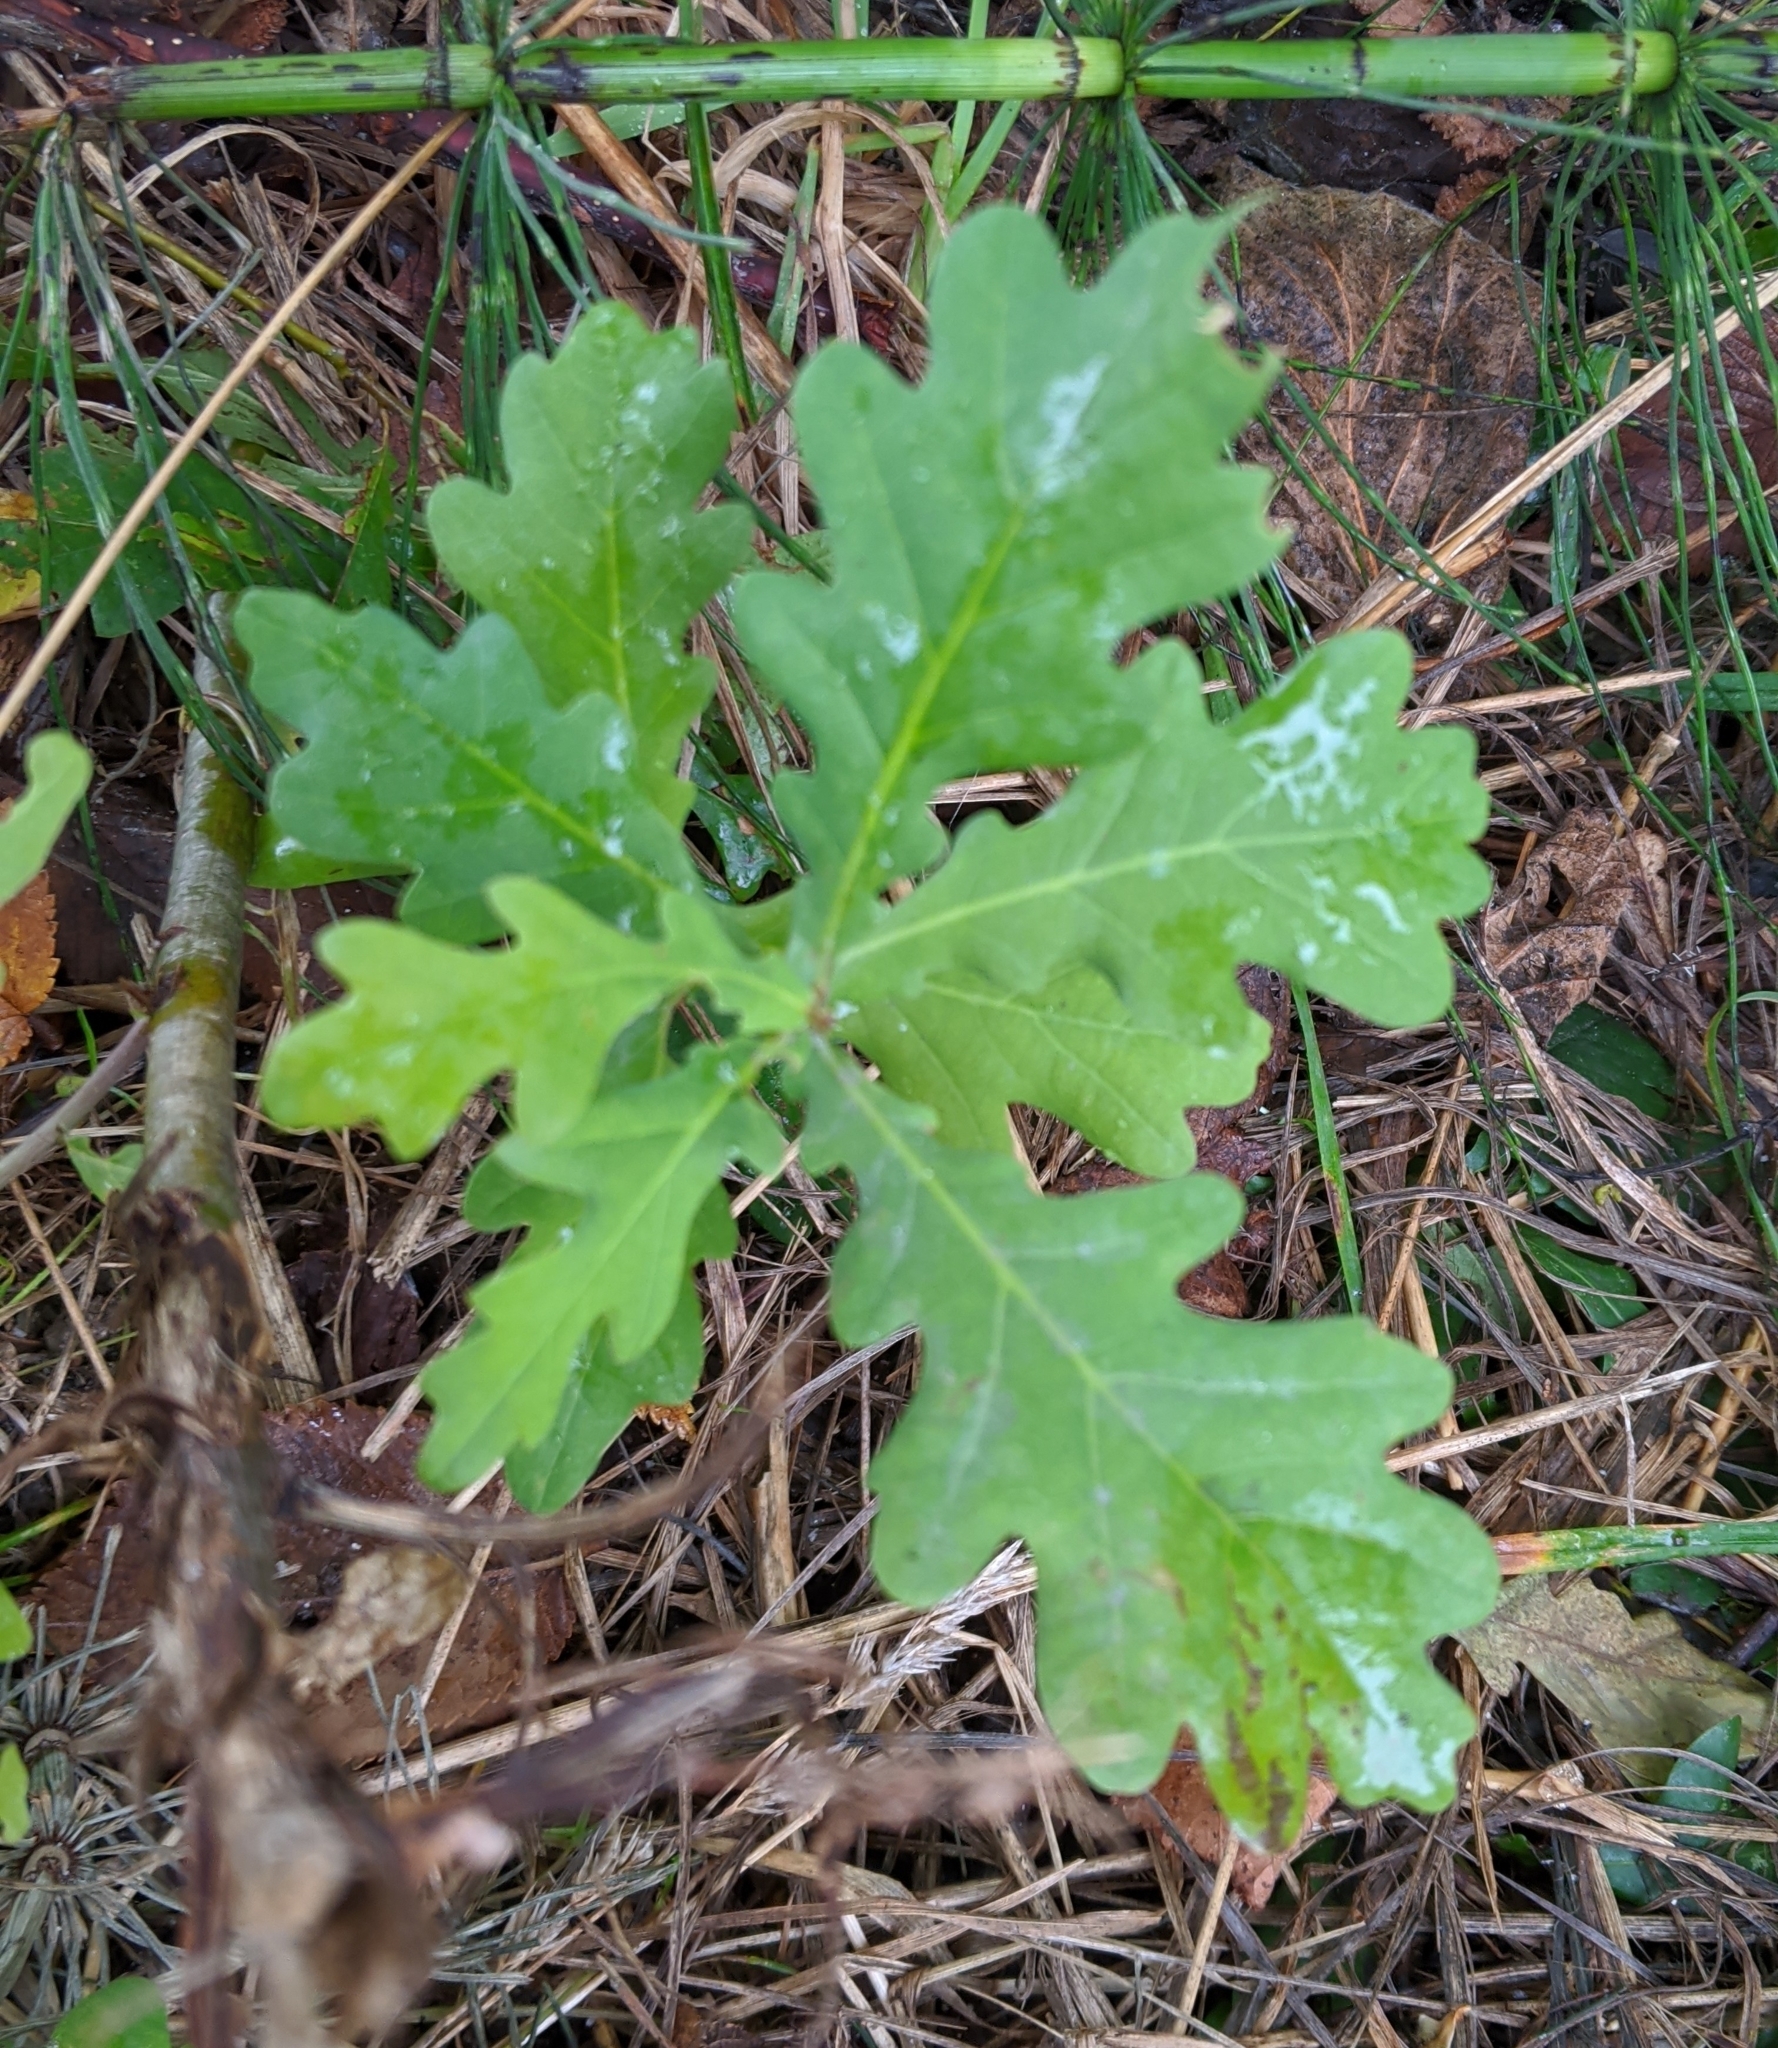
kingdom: Plantae
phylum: Tracheophyta
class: Magnoliopsida
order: Fagales
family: Fagaceae
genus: Quercus
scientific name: Quercus robur
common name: Pedunculate oak
